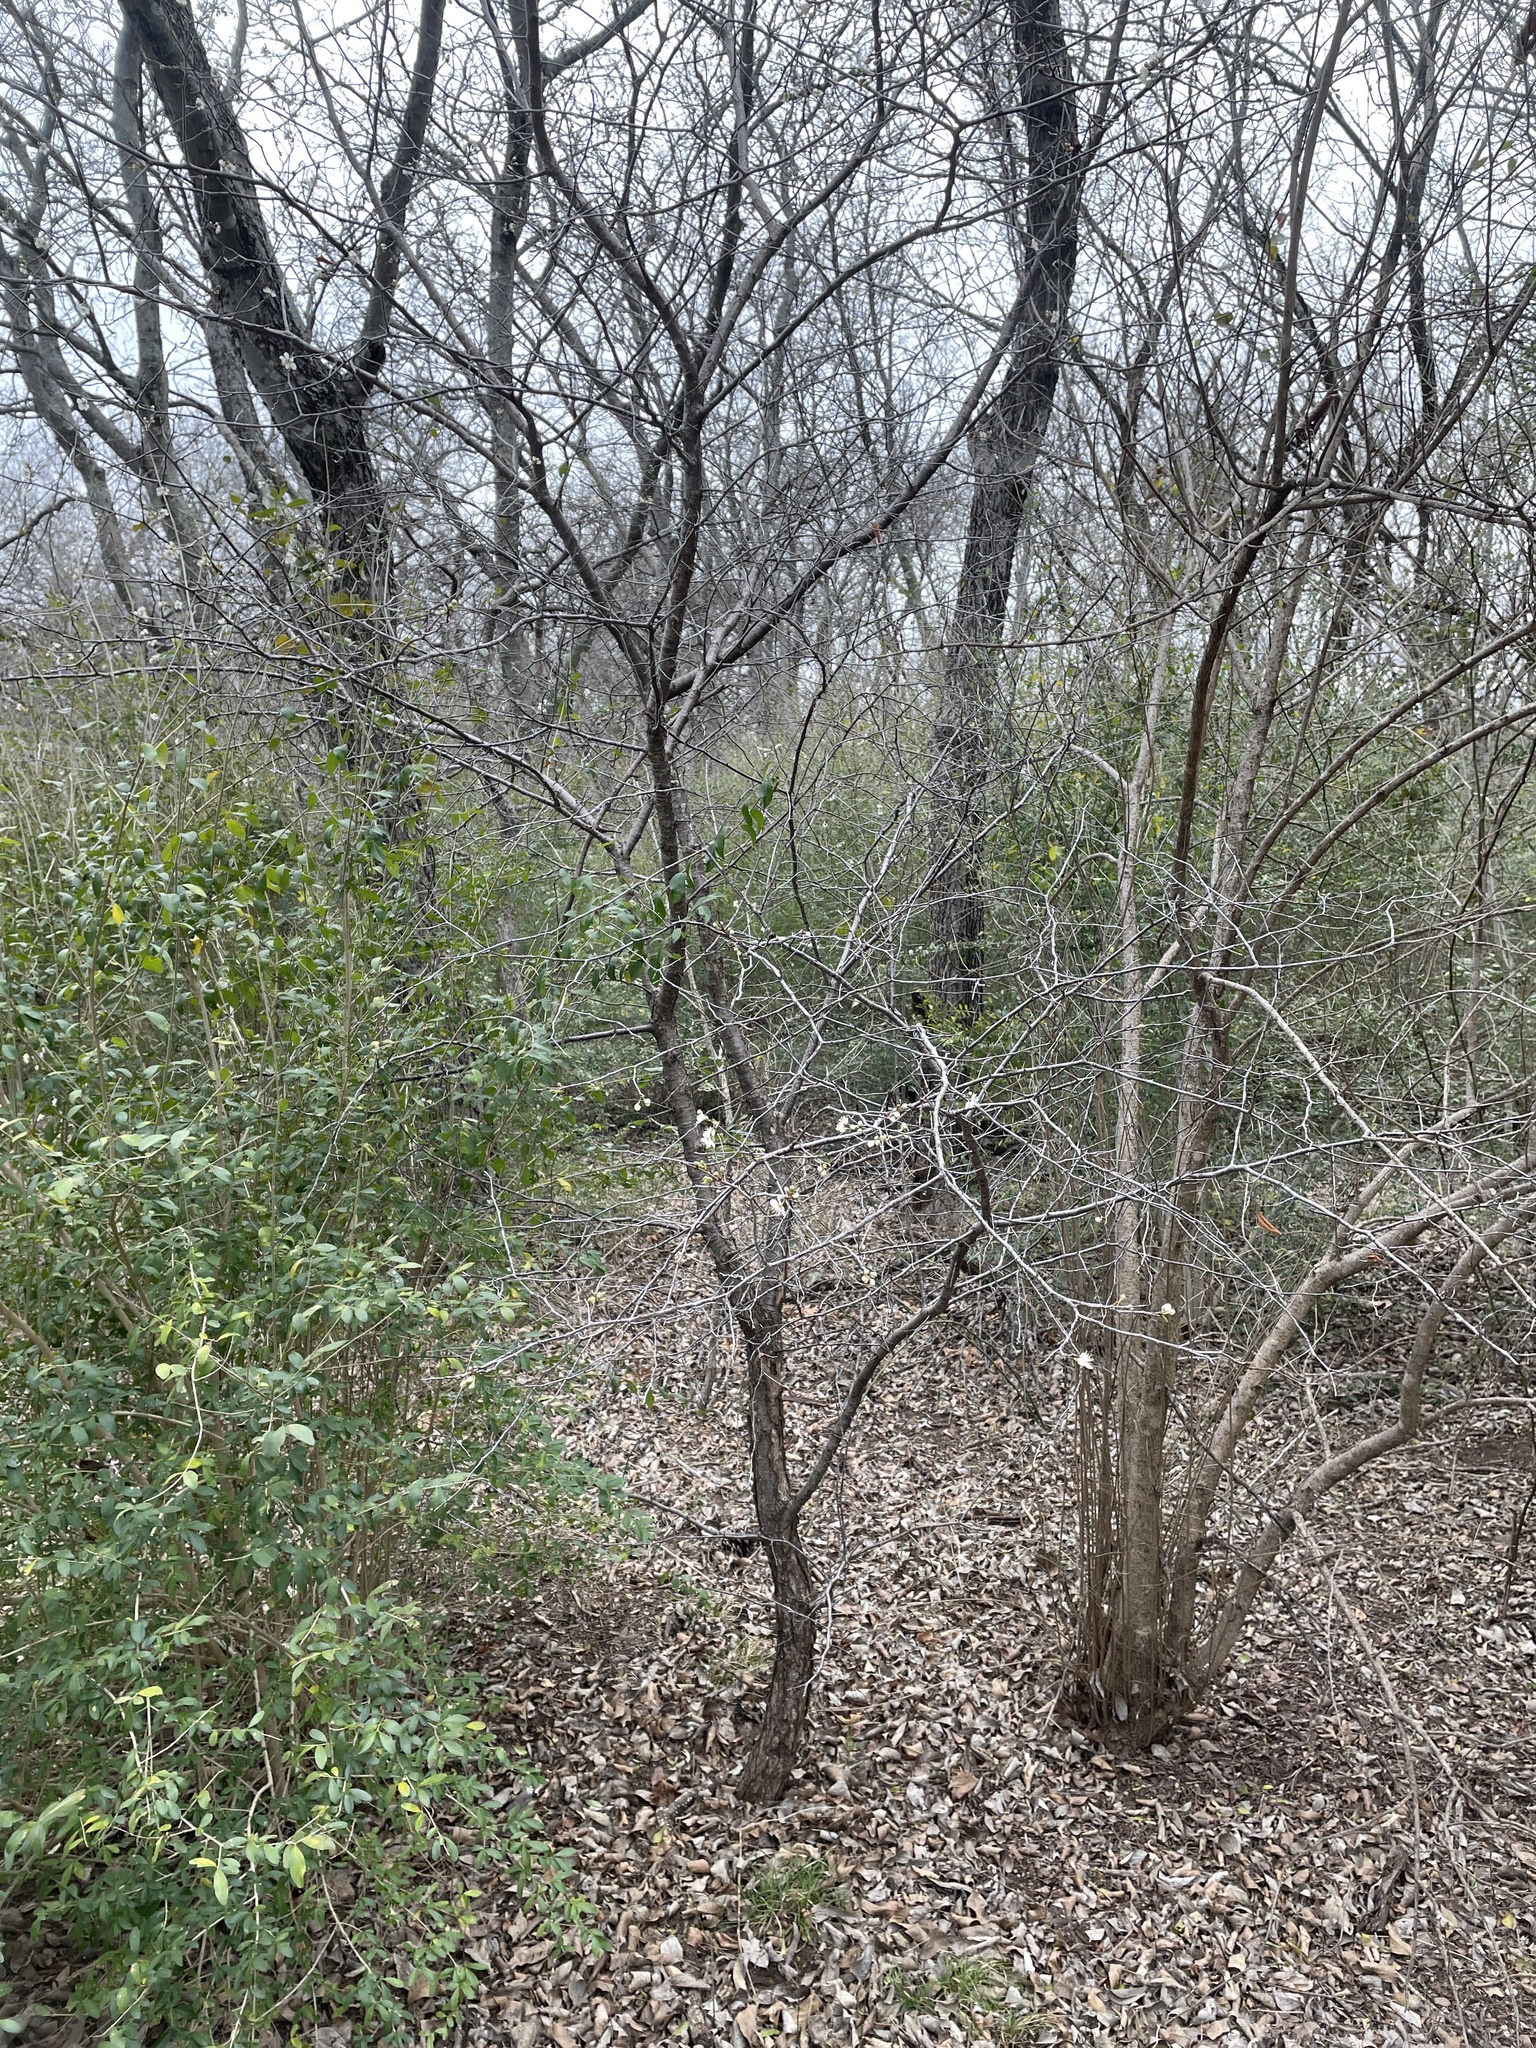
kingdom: Plantae
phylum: Tracheophyta
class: Magnoliopsida
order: Rosales
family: Rosaceae
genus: Prunus
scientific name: Prunus mexicana
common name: Mexican plum
